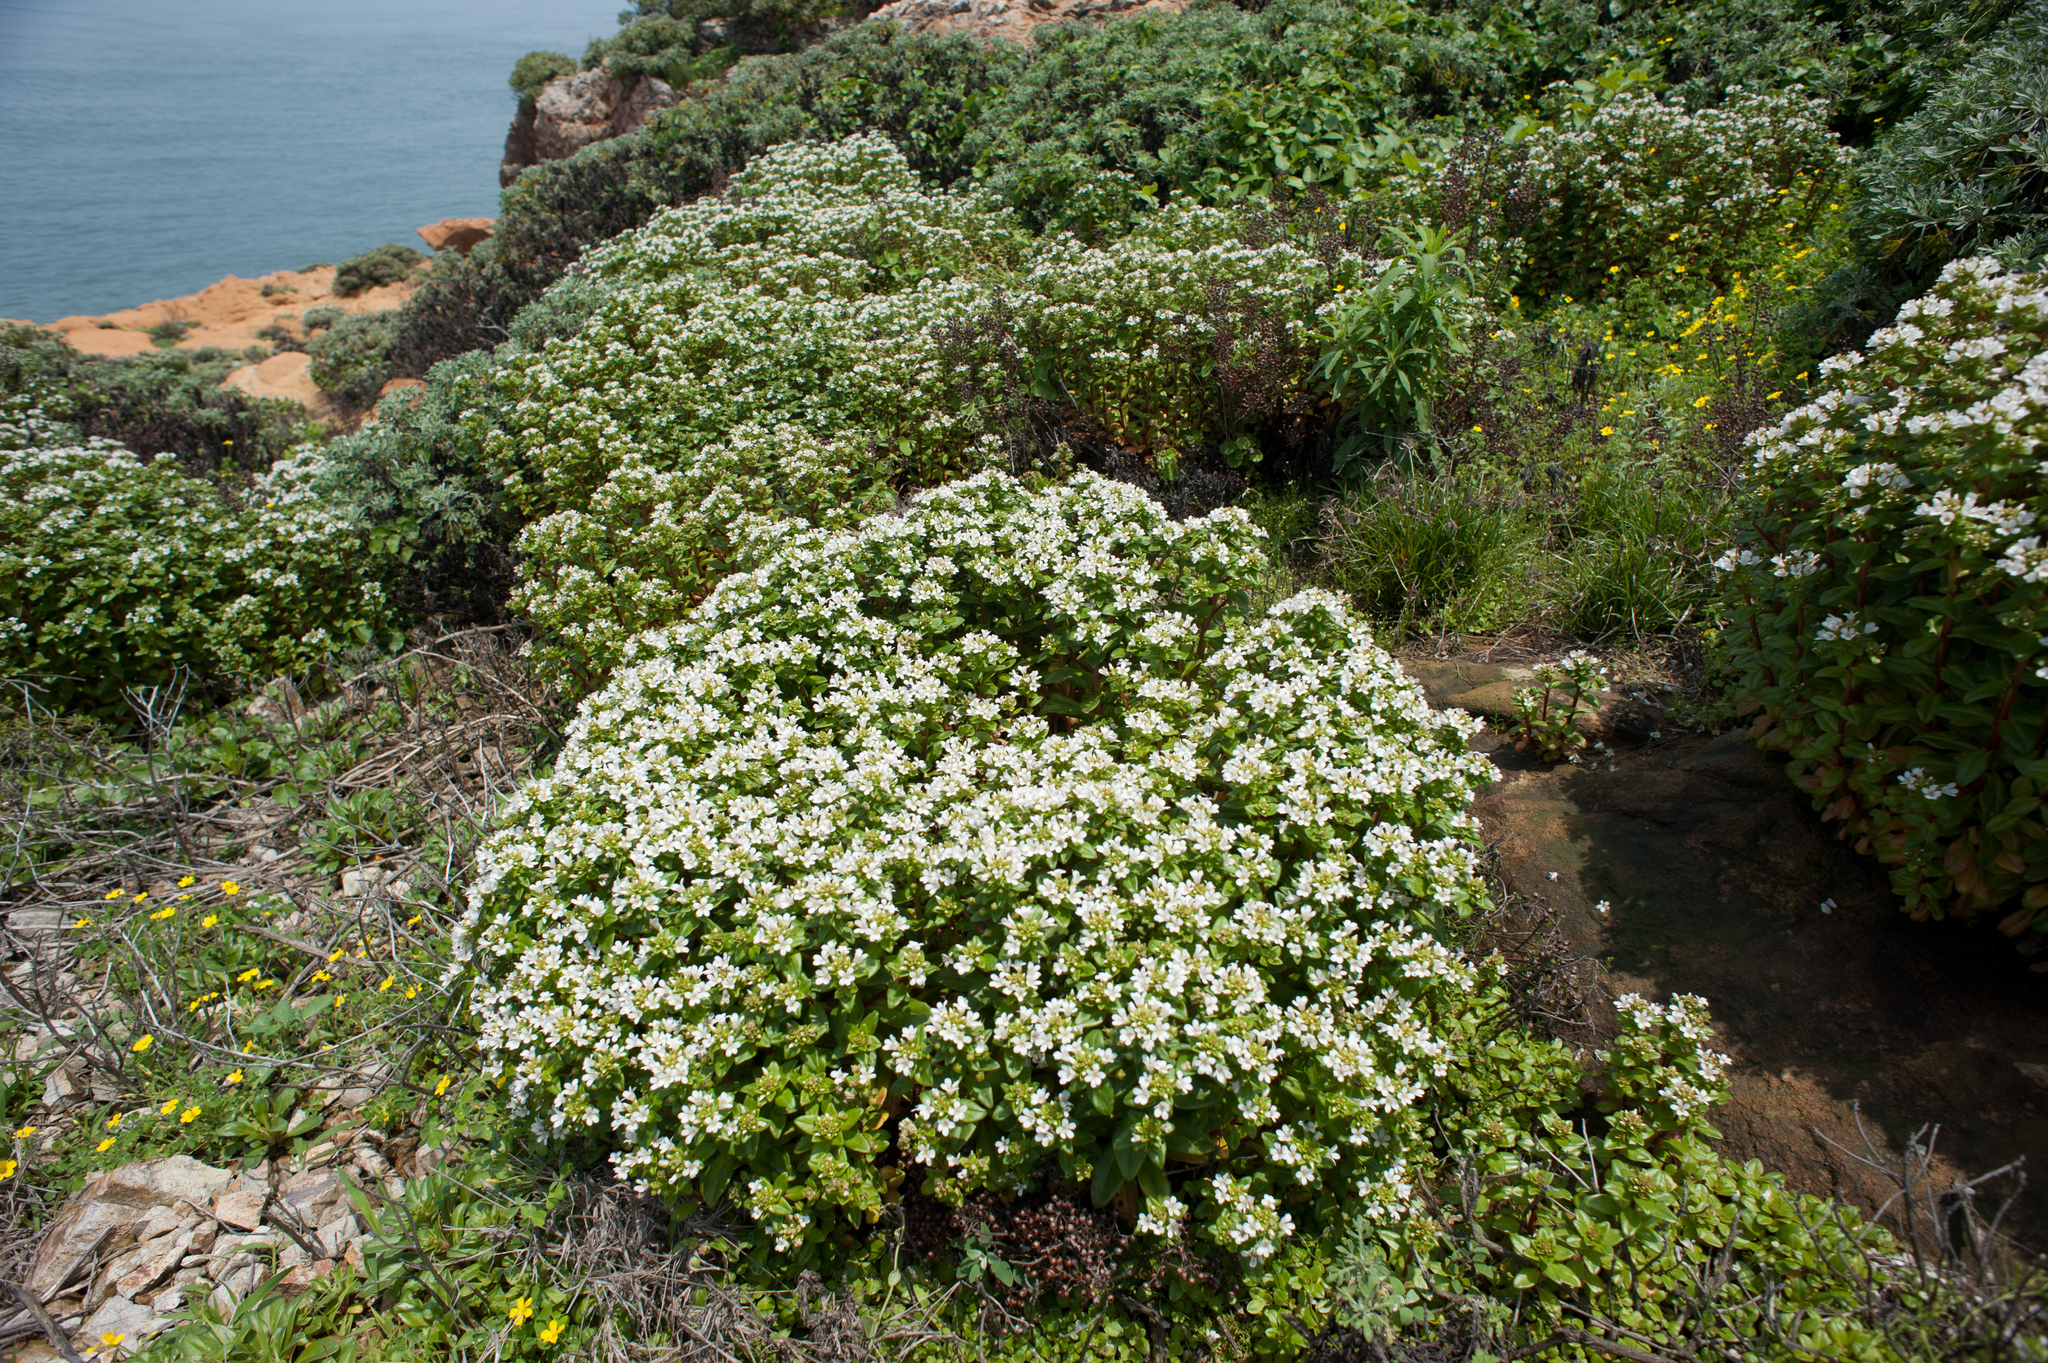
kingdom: Plantae
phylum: Tracheophyta
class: Magnoliopsida
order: Ericales
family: Primulaceae
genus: Lysimachia
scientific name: Lysimachia mauritiana
